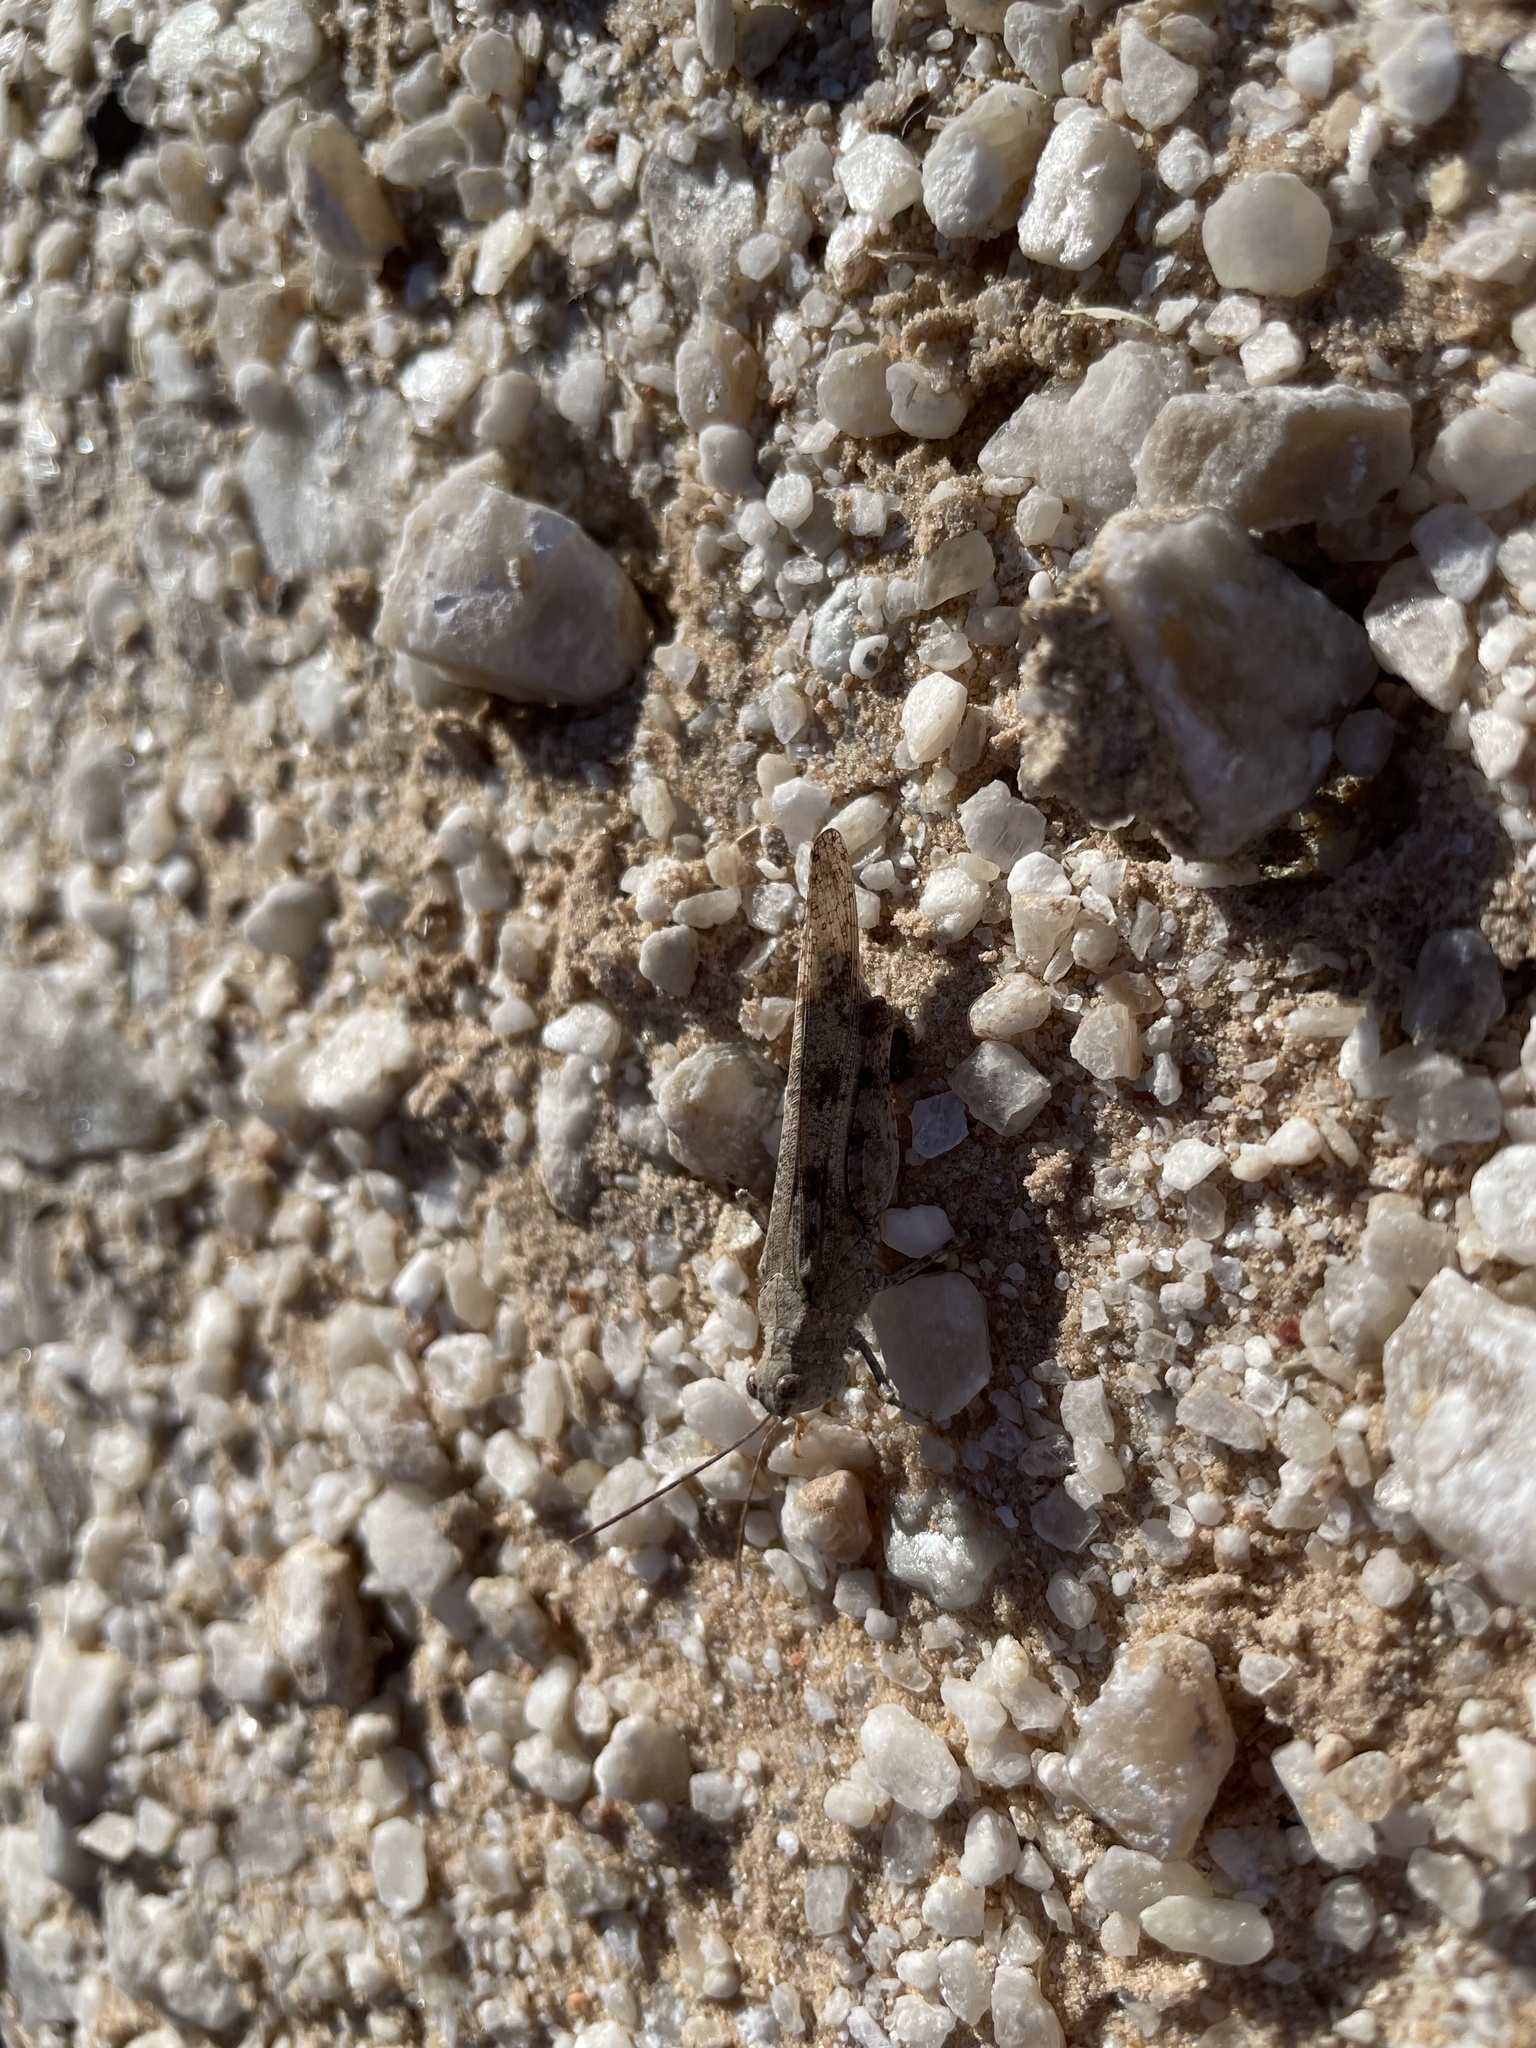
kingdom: Animalia
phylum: Arthropoda
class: Insecta
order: Orthoptera
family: Acrididae
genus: Trimerotropis
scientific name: Trimerotropis maritima
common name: Seaside locust
